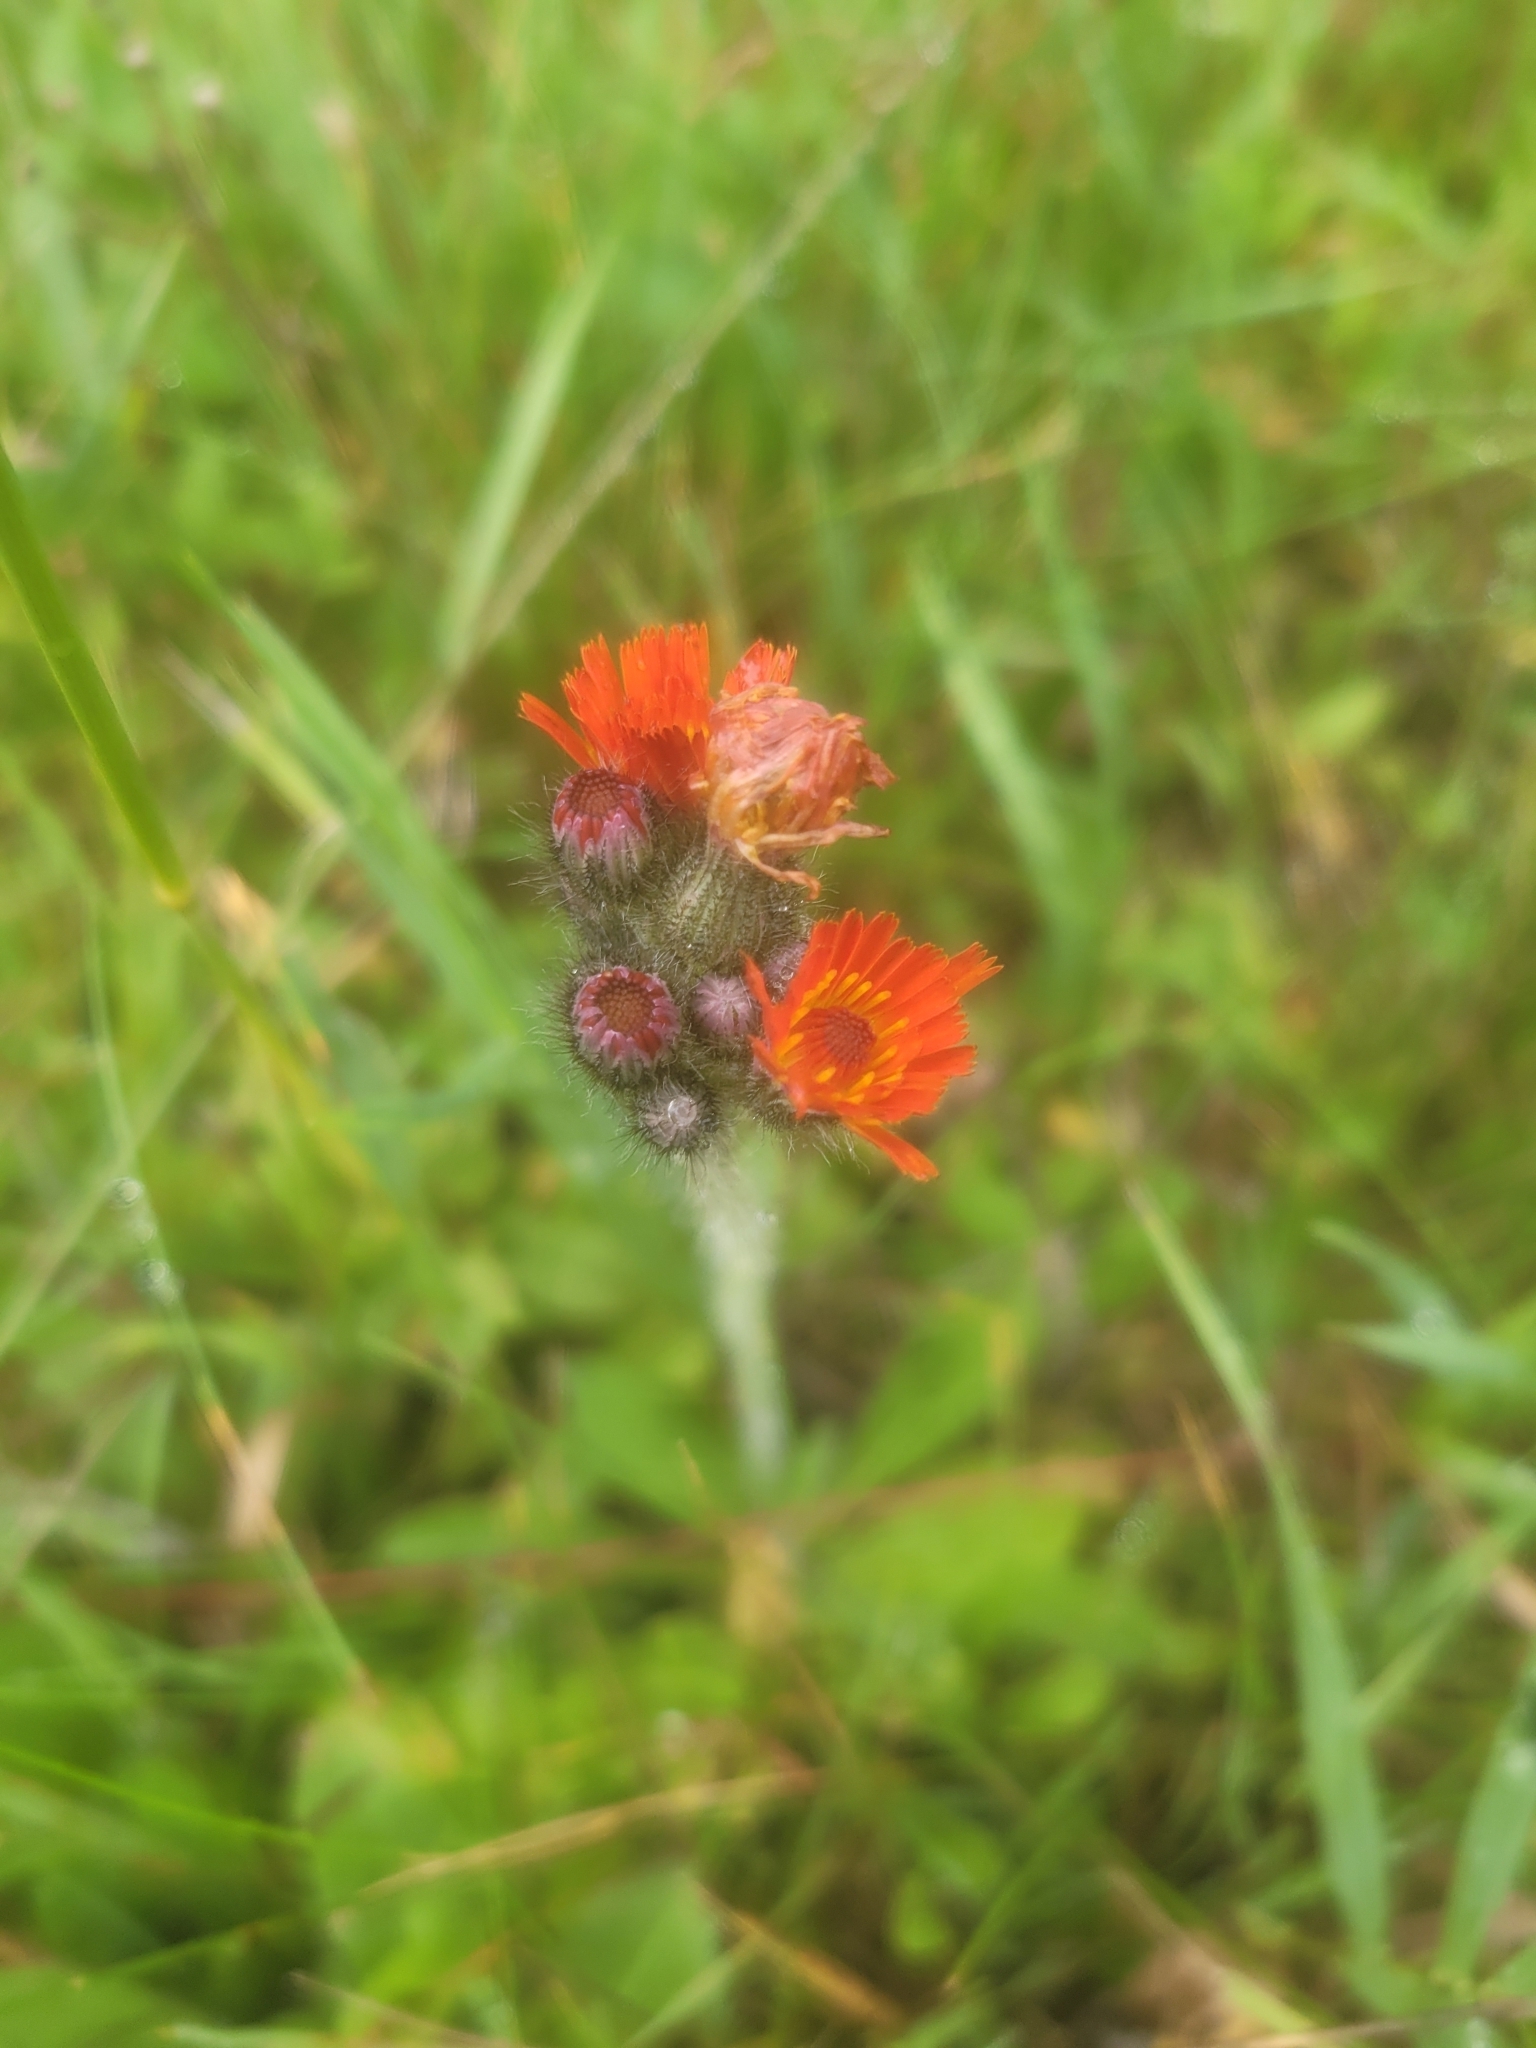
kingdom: Plantae
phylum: Tracheophyta
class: Magnoliopsida
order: Asterales
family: Asteraceae
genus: Pilosella
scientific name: Pilosella aurantiaca
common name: Fox-and-cubs
